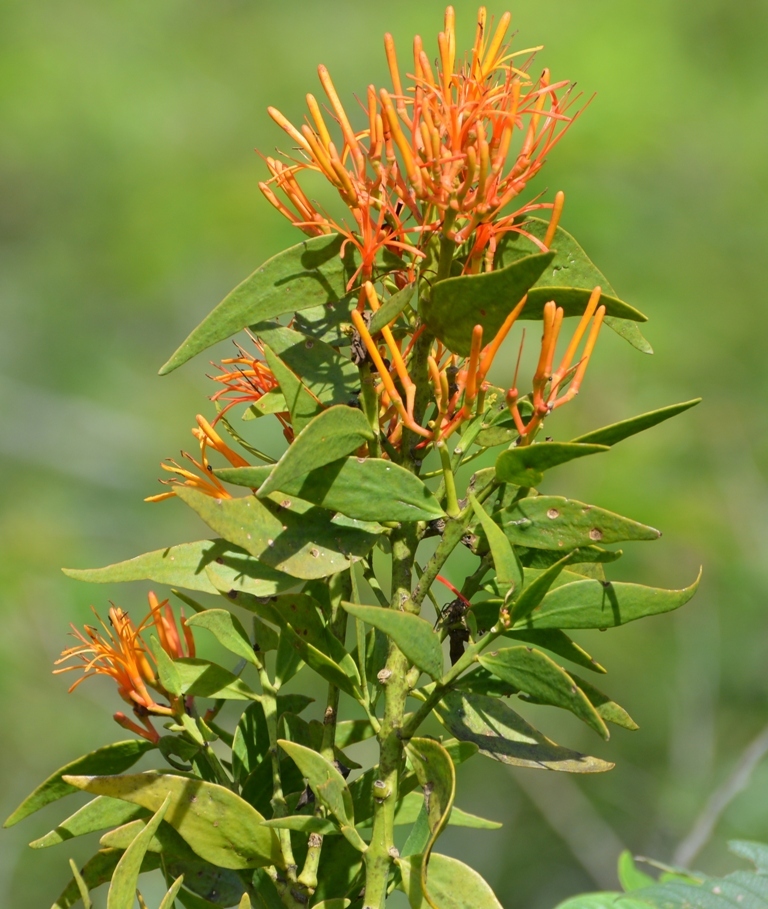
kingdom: Plantae
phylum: Tracheophyta
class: Magnoliopsida
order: Santalales
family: Loranthaceae
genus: Psittacanthus
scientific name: Psittacanthus calyculatus
